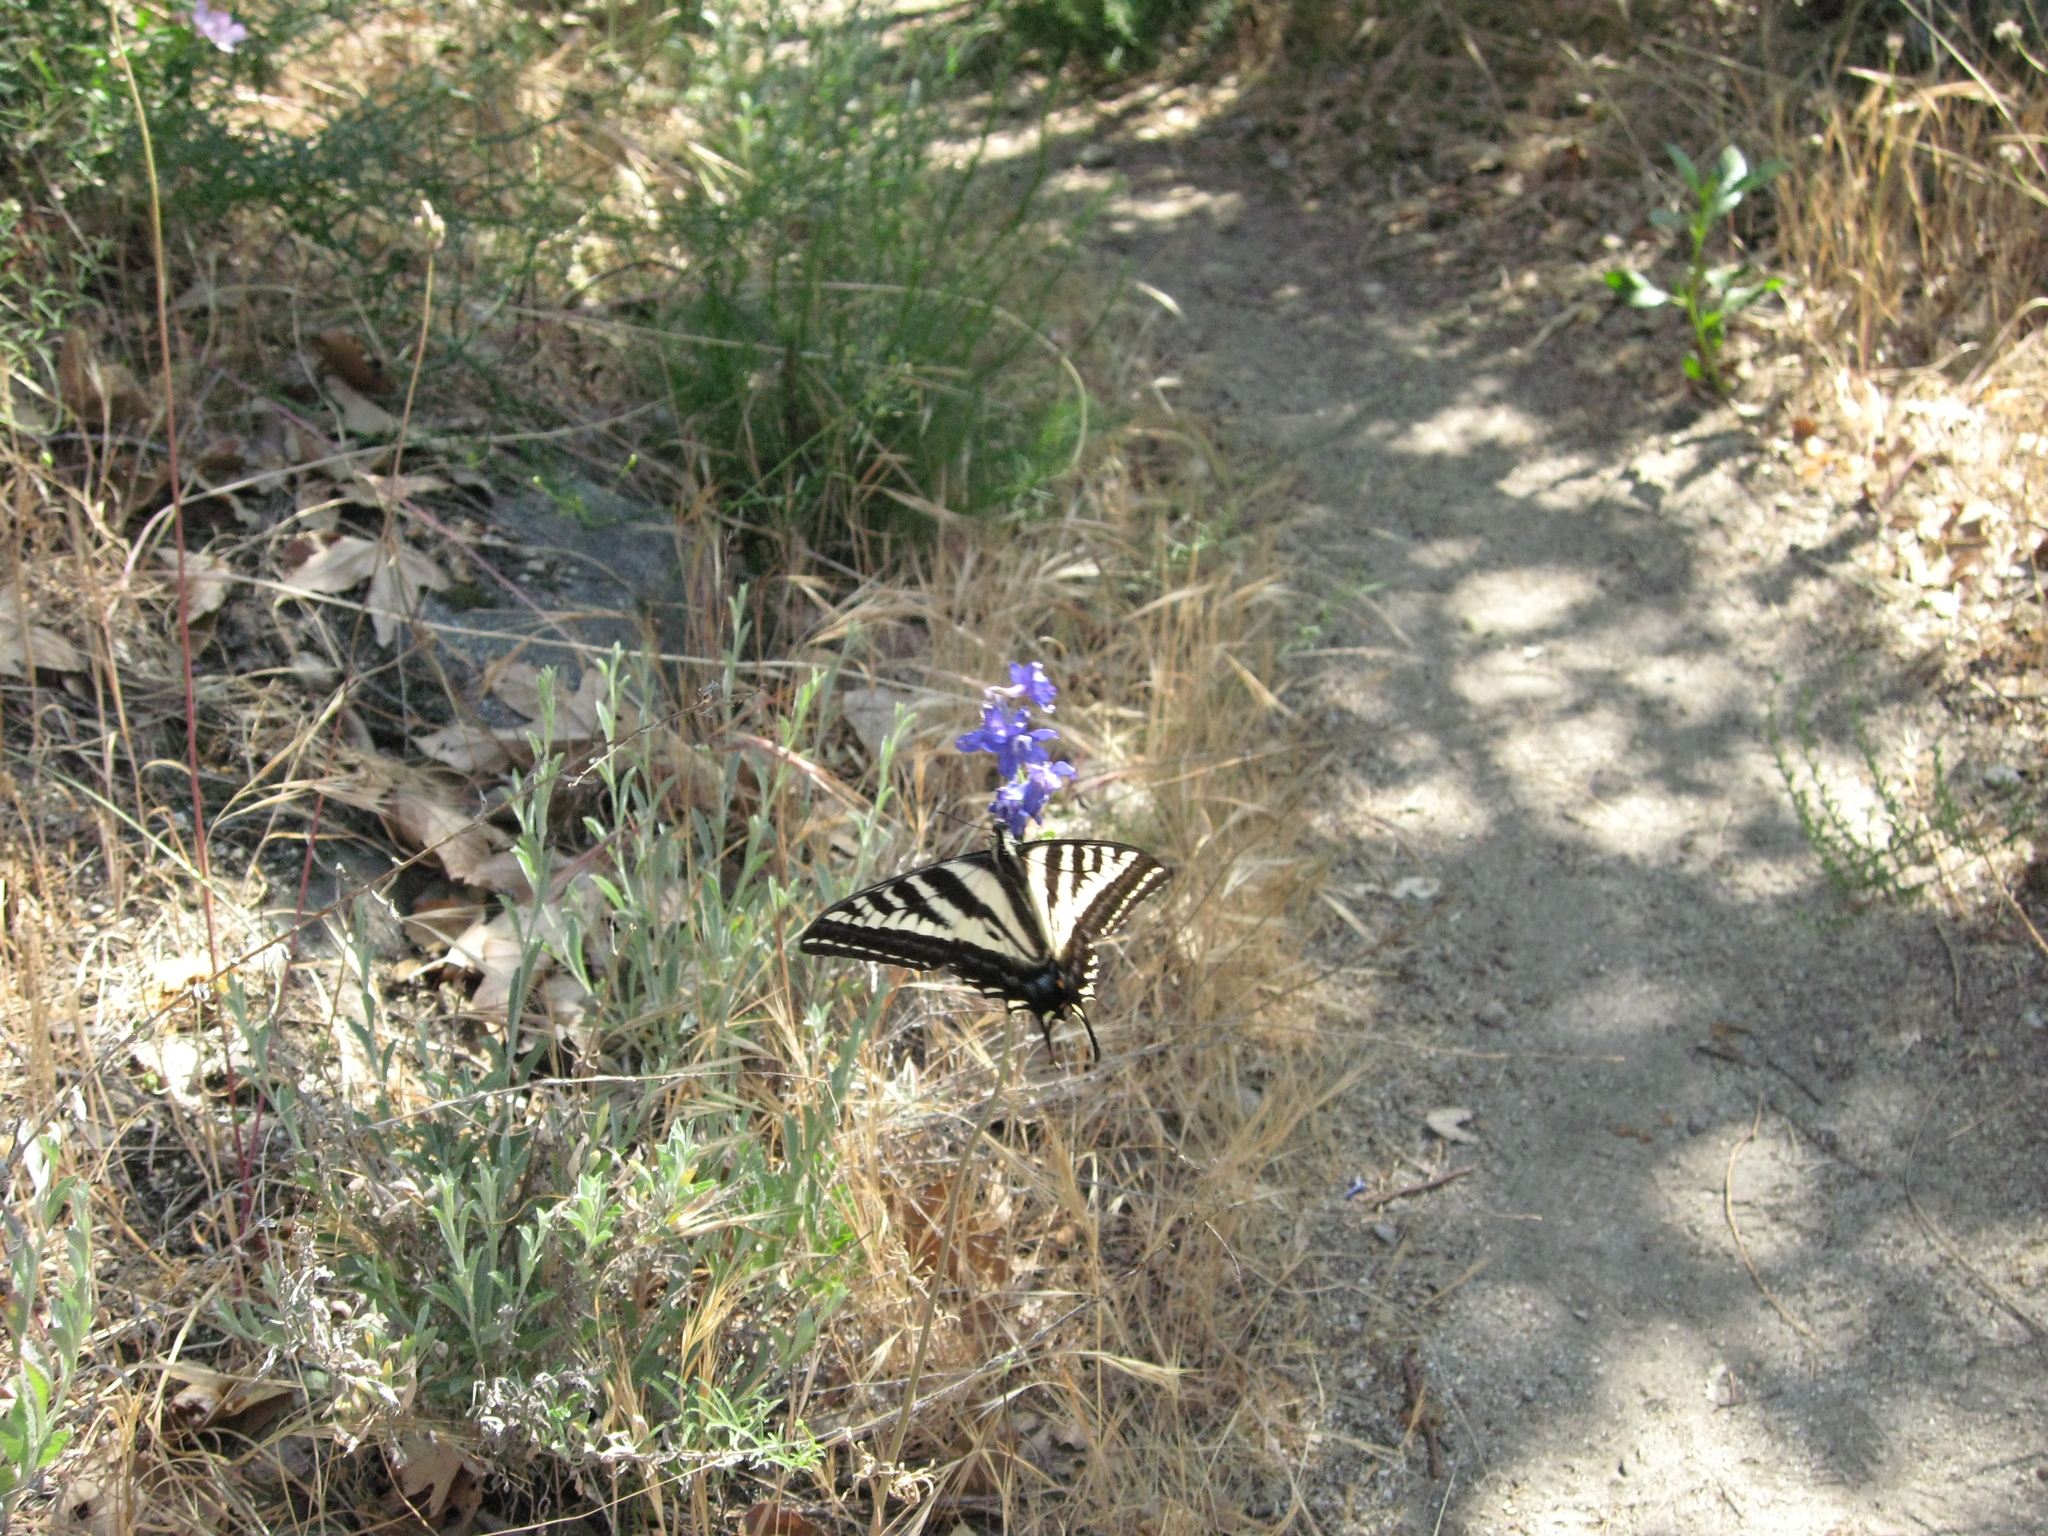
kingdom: Animalia
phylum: Arthropoda
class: Insecta
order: Lepidoptera
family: Papilionidae
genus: Papilio
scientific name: Papilio eurymedon
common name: Pale tiger swallowtail
